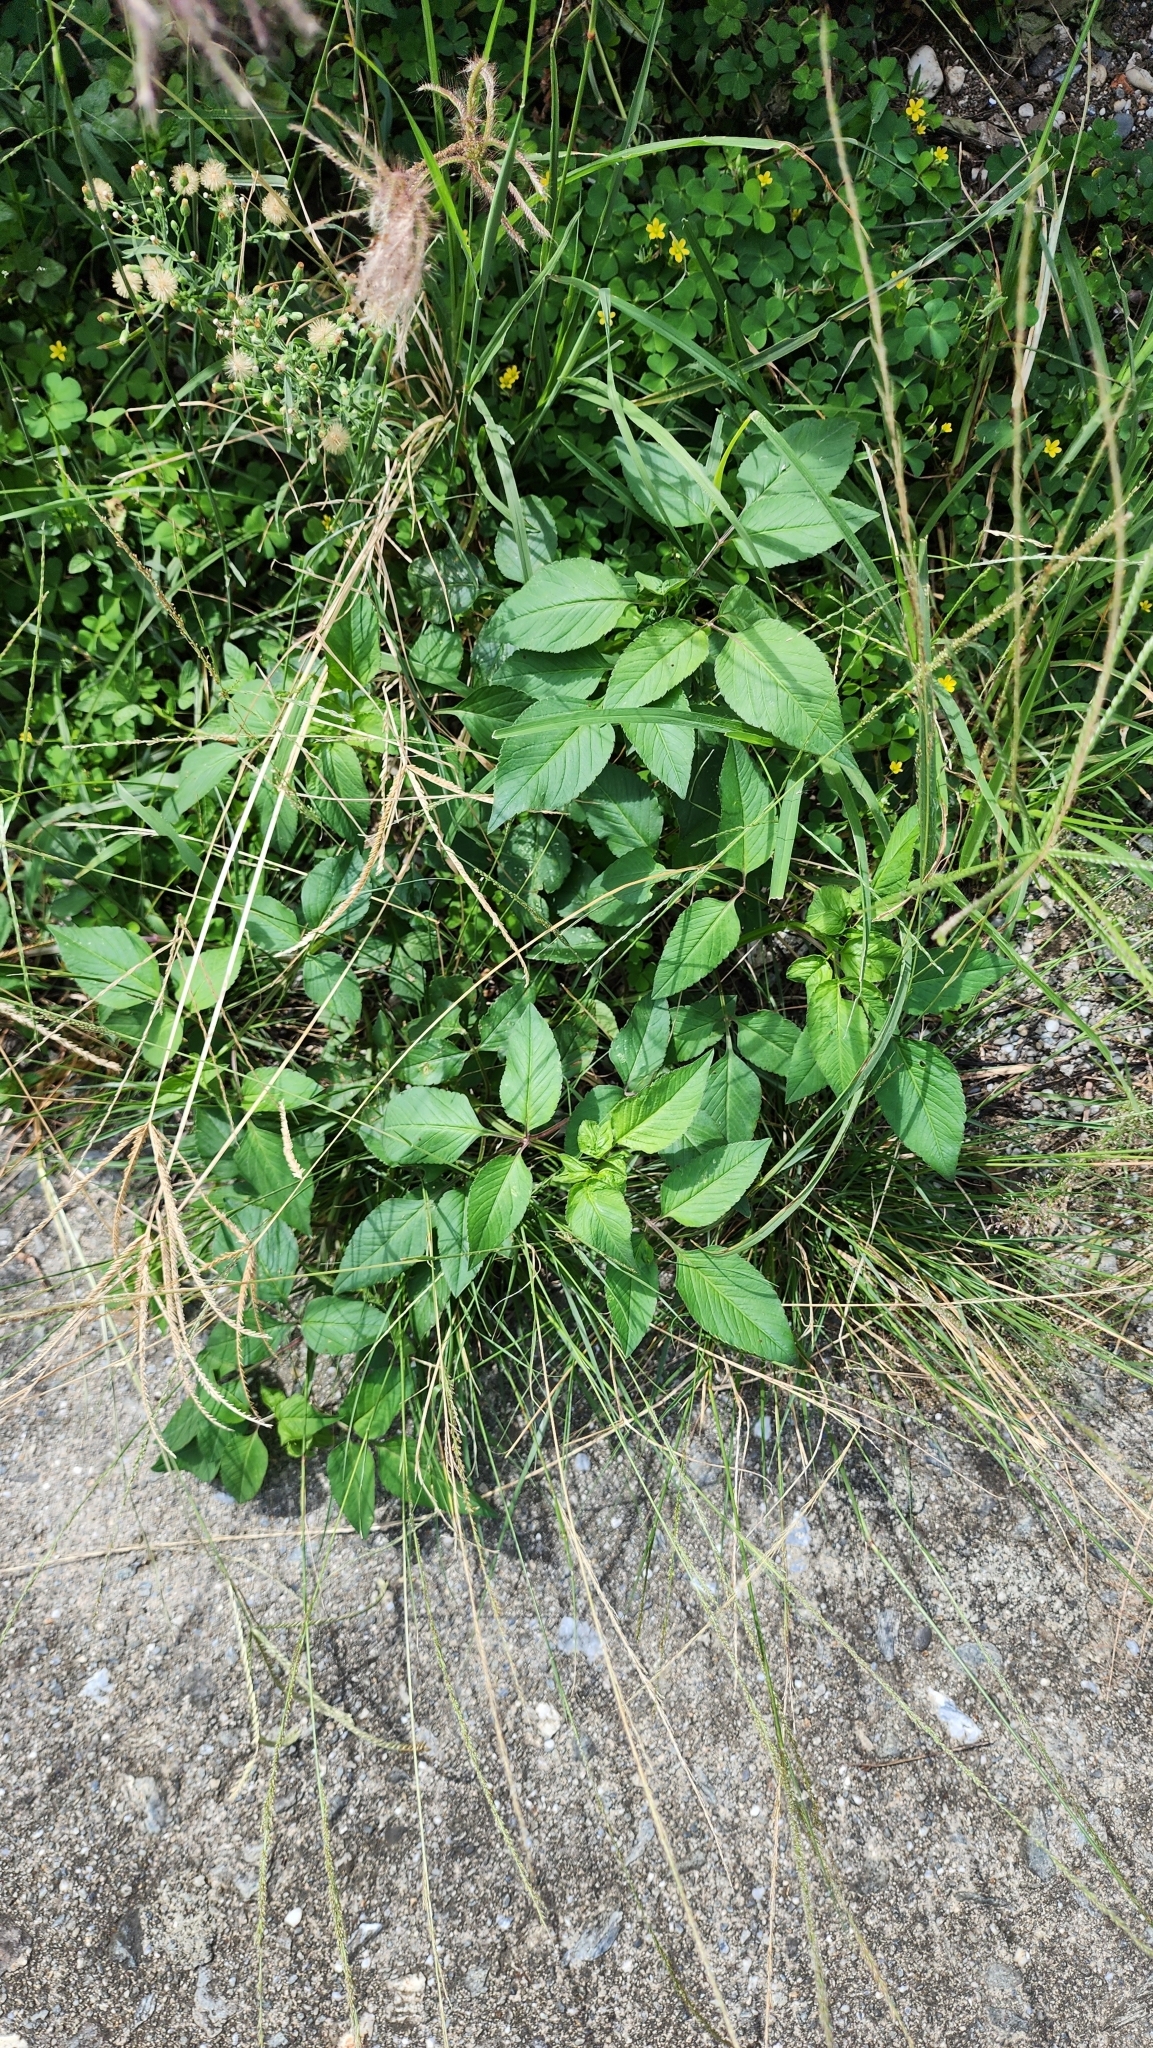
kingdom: Plantae
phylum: Tracheophyta
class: Magnoliopsida
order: Asterales
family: Asteraceae
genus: Bidens
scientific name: Bidens alba
